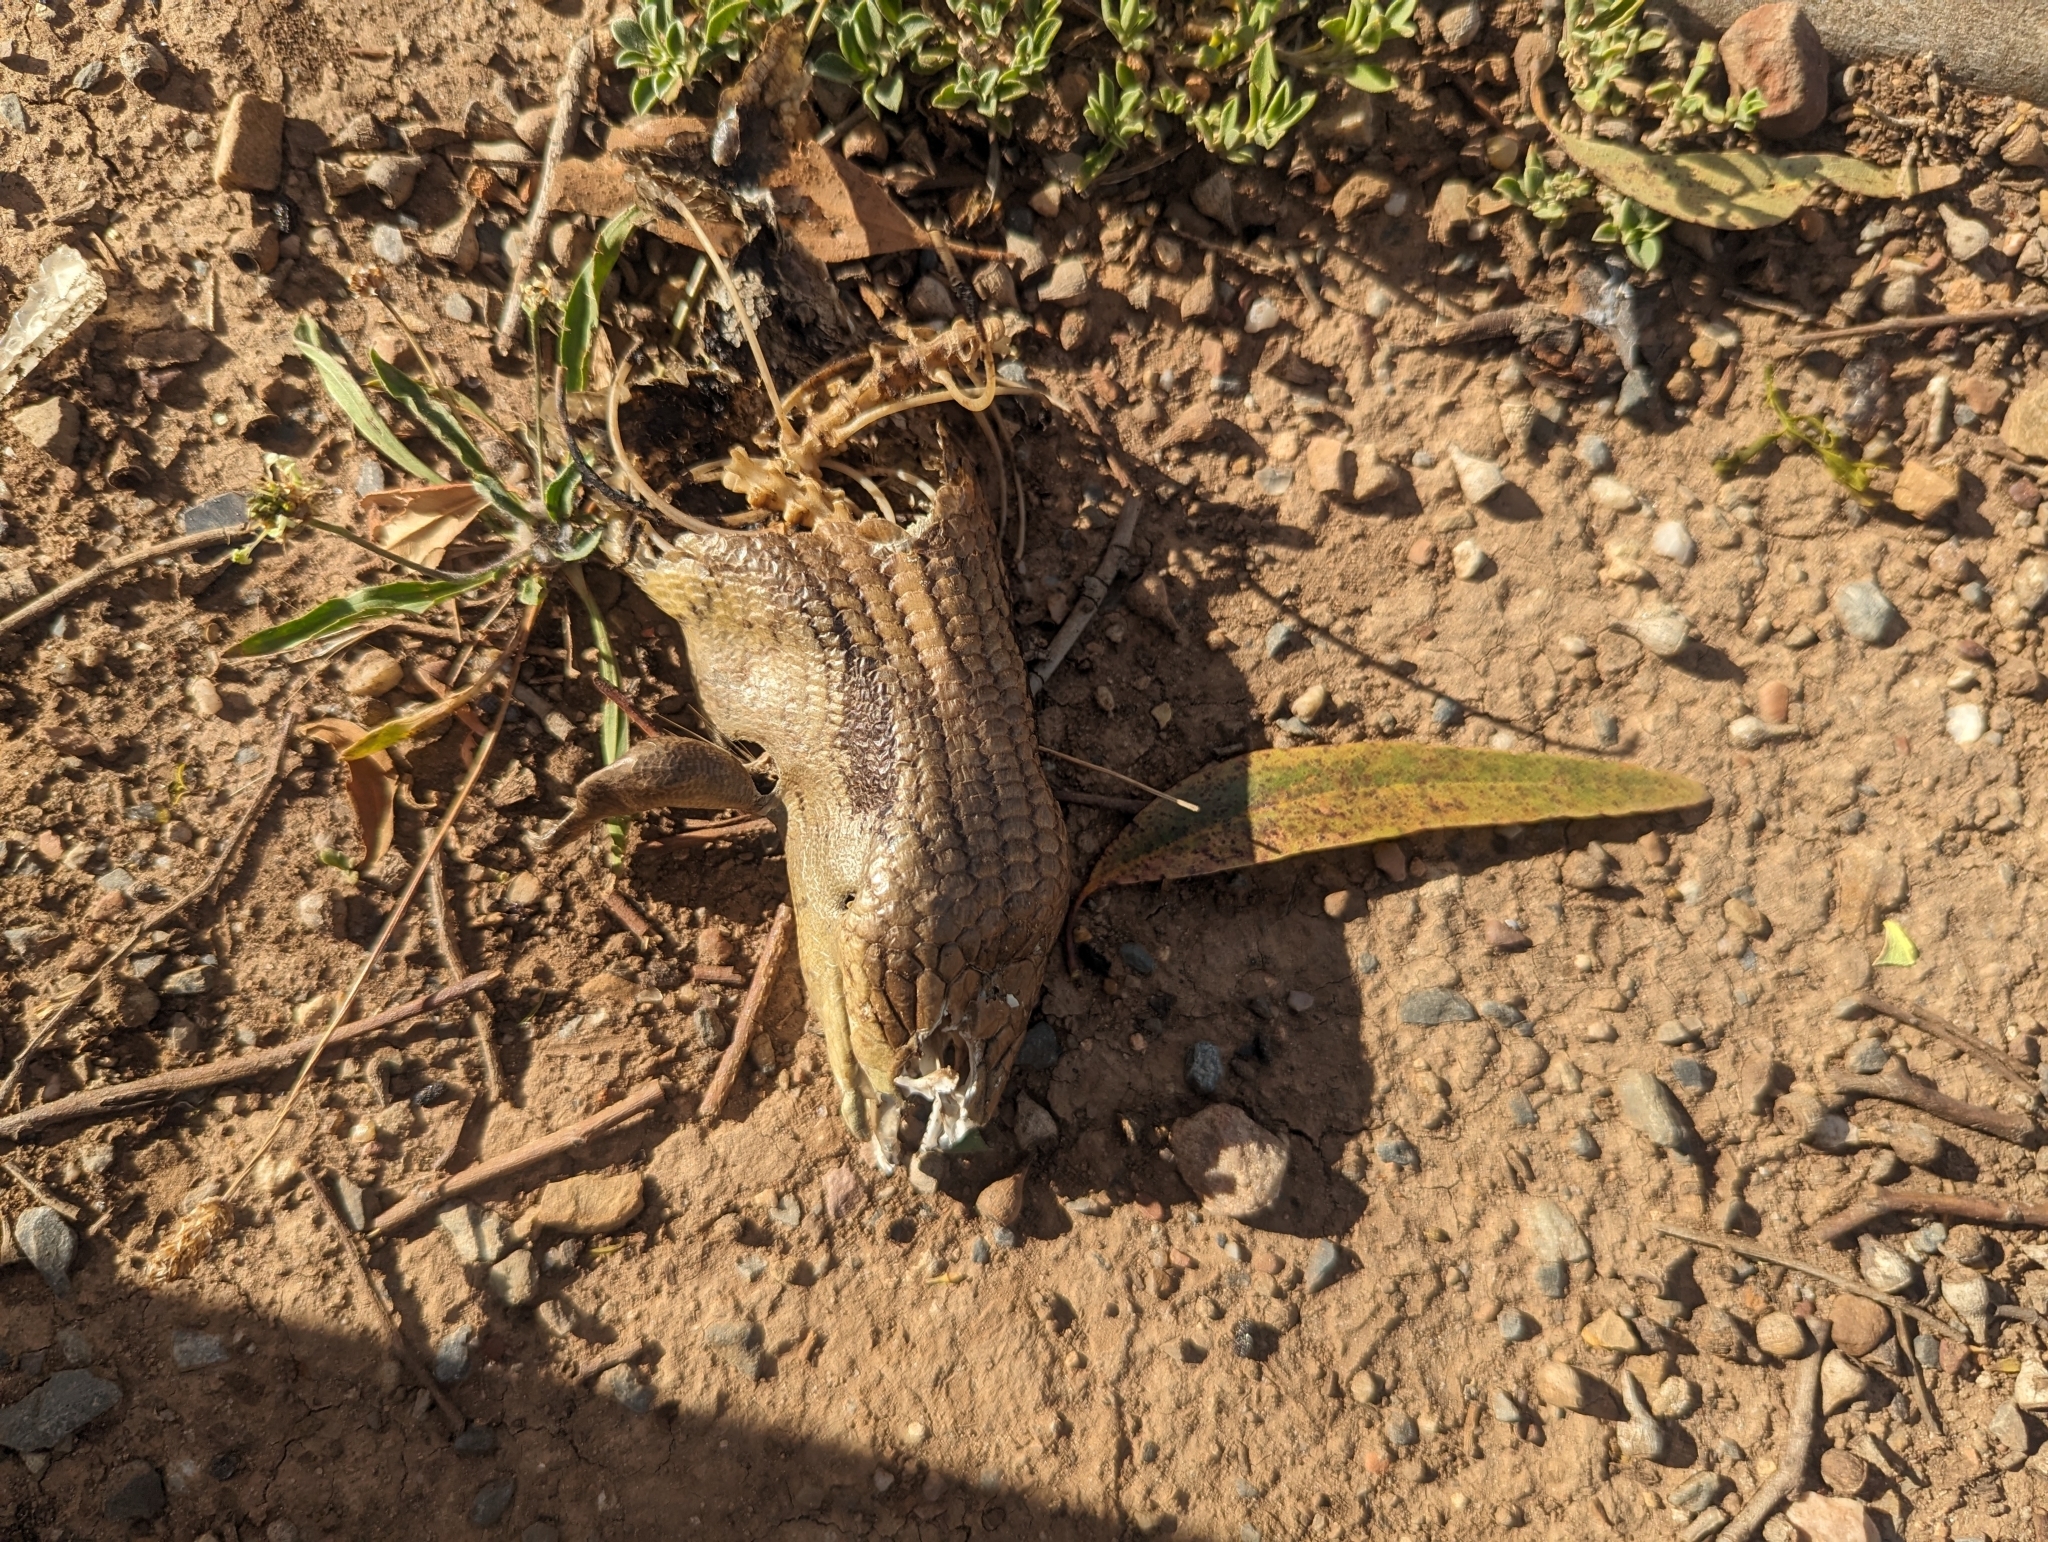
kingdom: Animalia
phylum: Chordata
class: Squamata
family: Scincidae
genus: Tiliqua
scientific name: Tiliqua scincoides
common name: Common bluetongue
